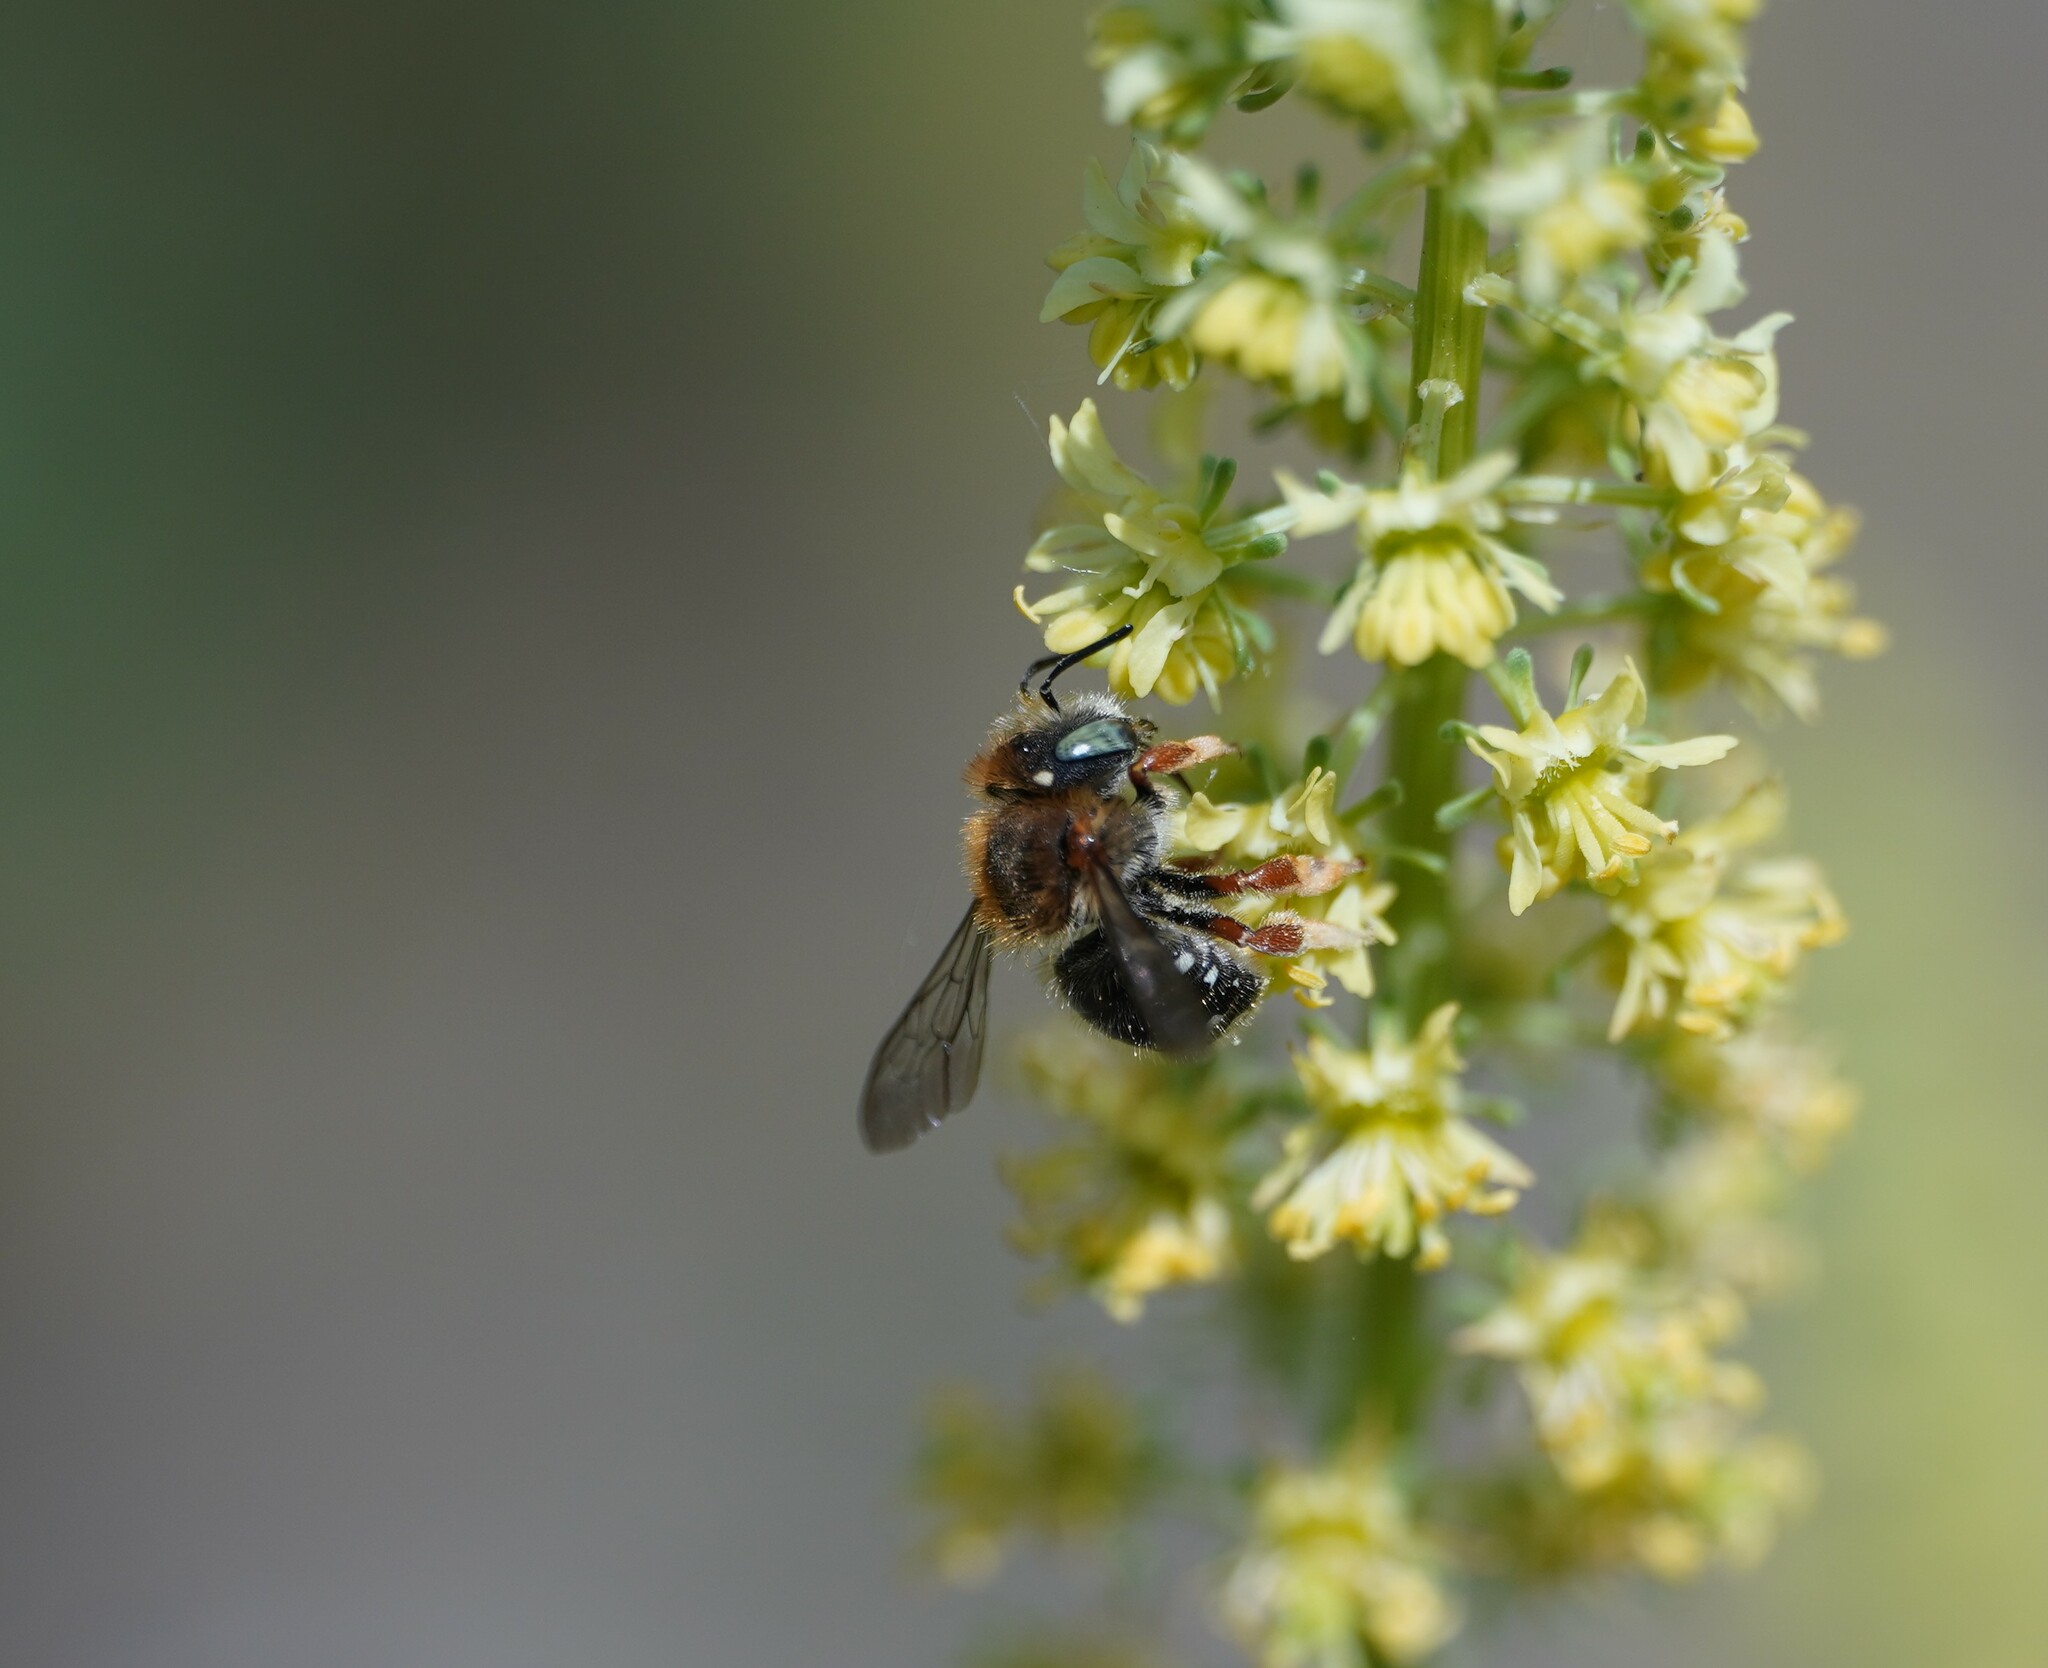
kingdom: Animalia
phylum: Arthropoda
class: Insecta
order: Hymenoptera
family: Megachilidae
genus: Anthidium
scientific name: Anthidium punctatum
